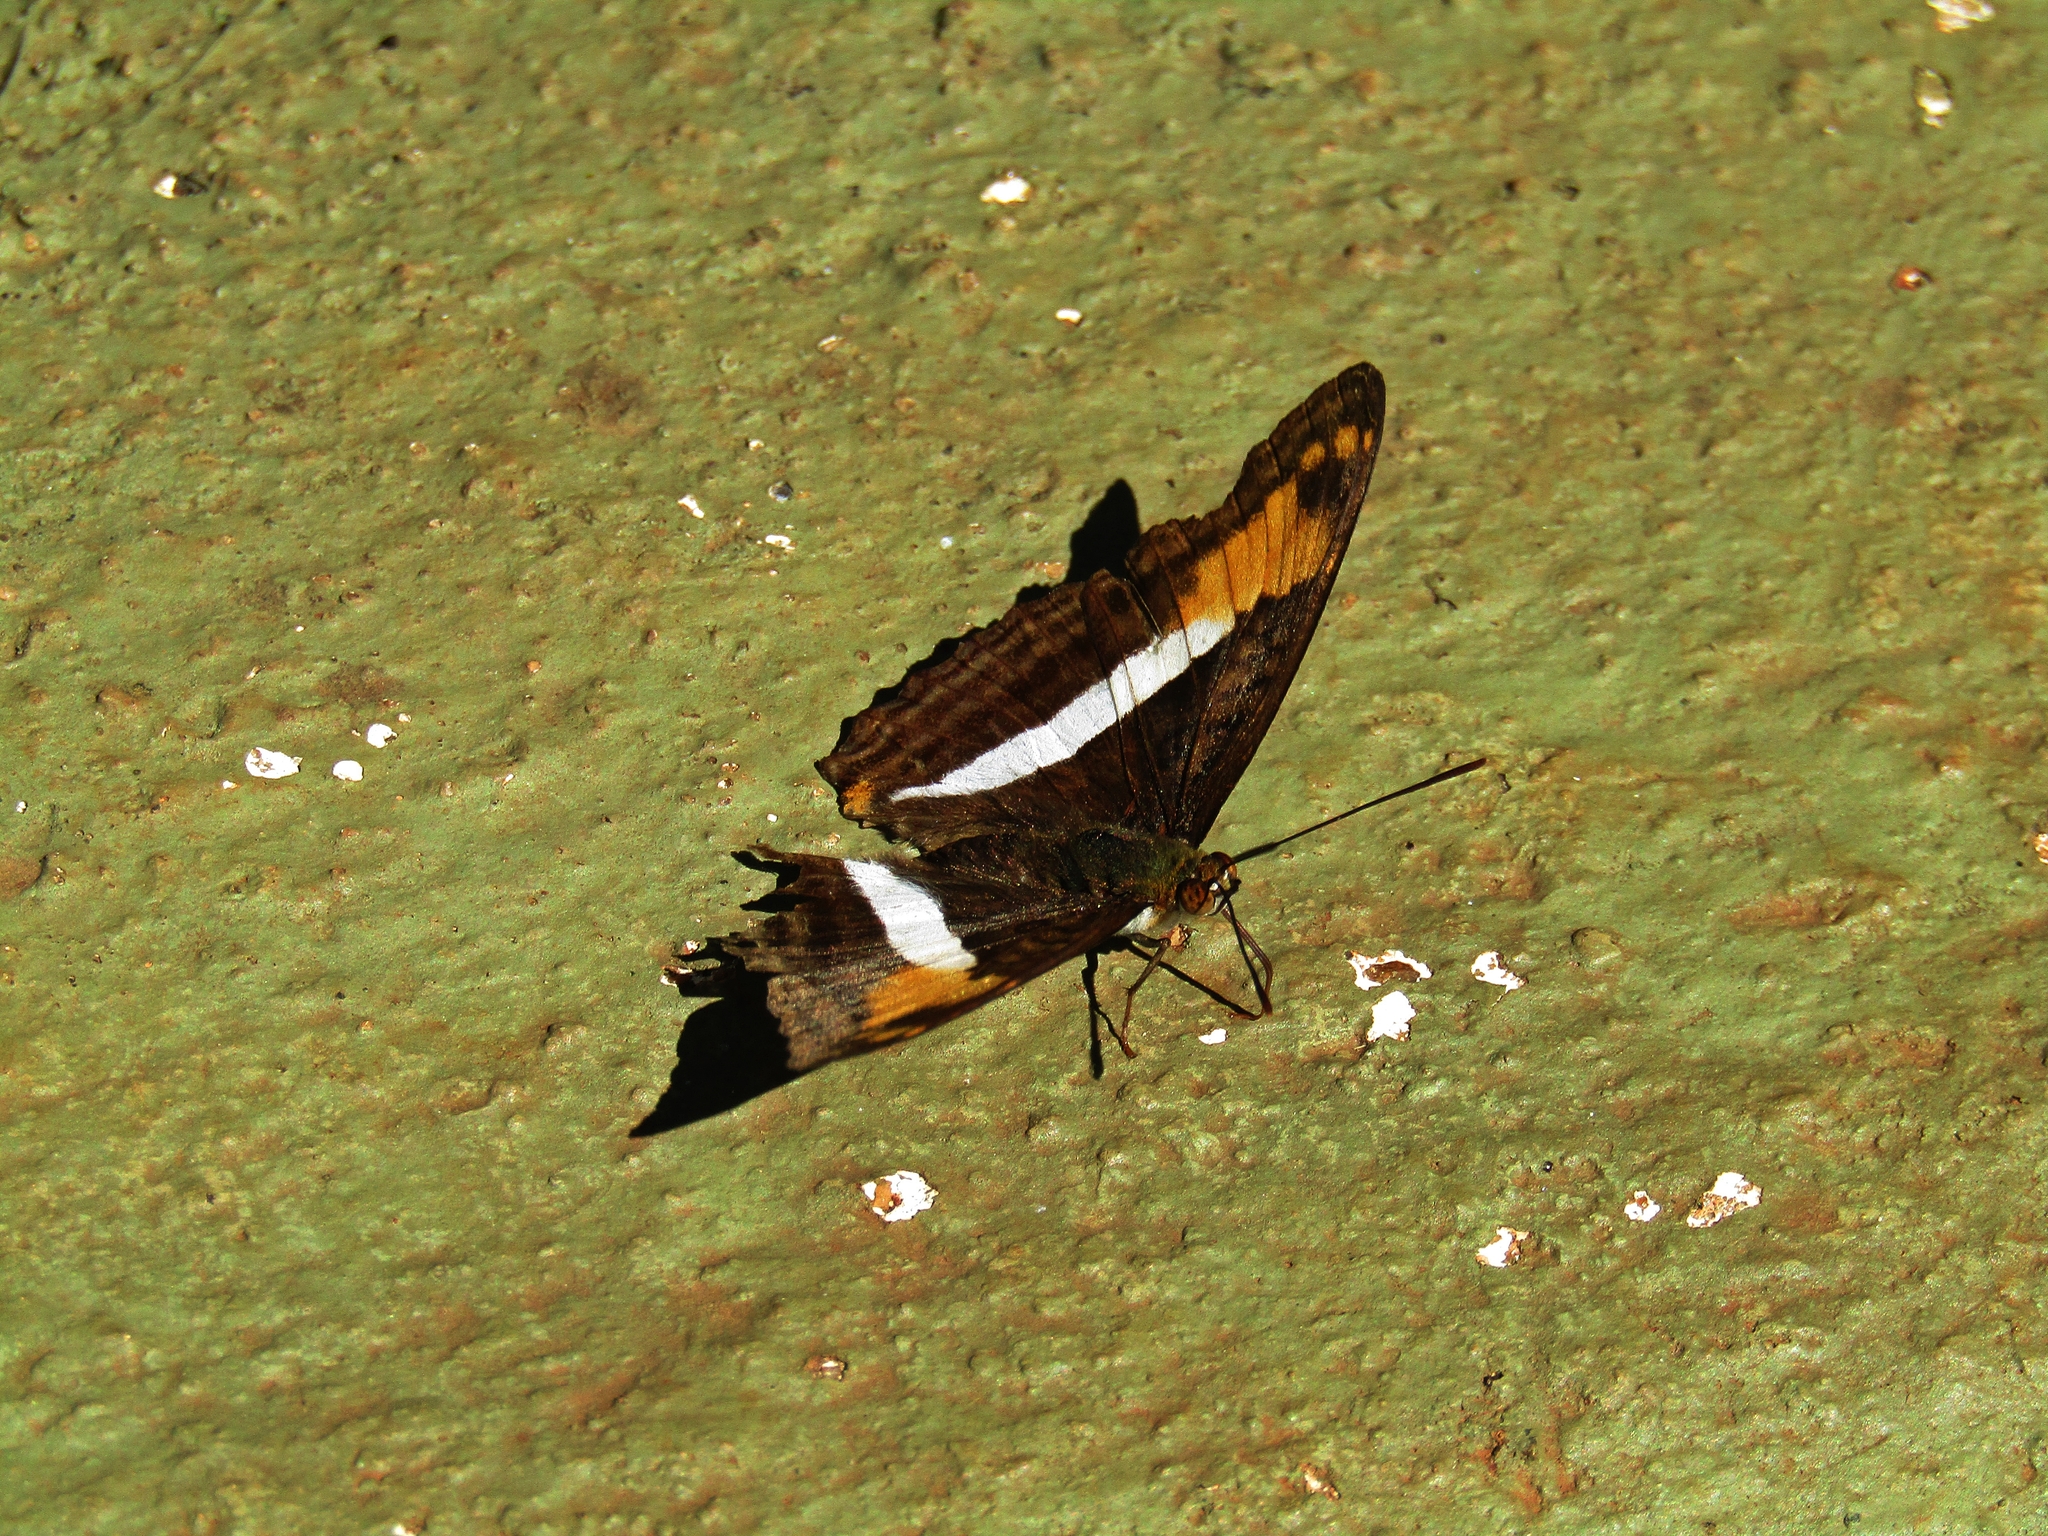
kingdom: Animalia
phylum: Arthropoda
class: Insecta
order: Lepidoptera
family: Nymphalidae
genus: Limenitis
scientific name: Limenitis malea
